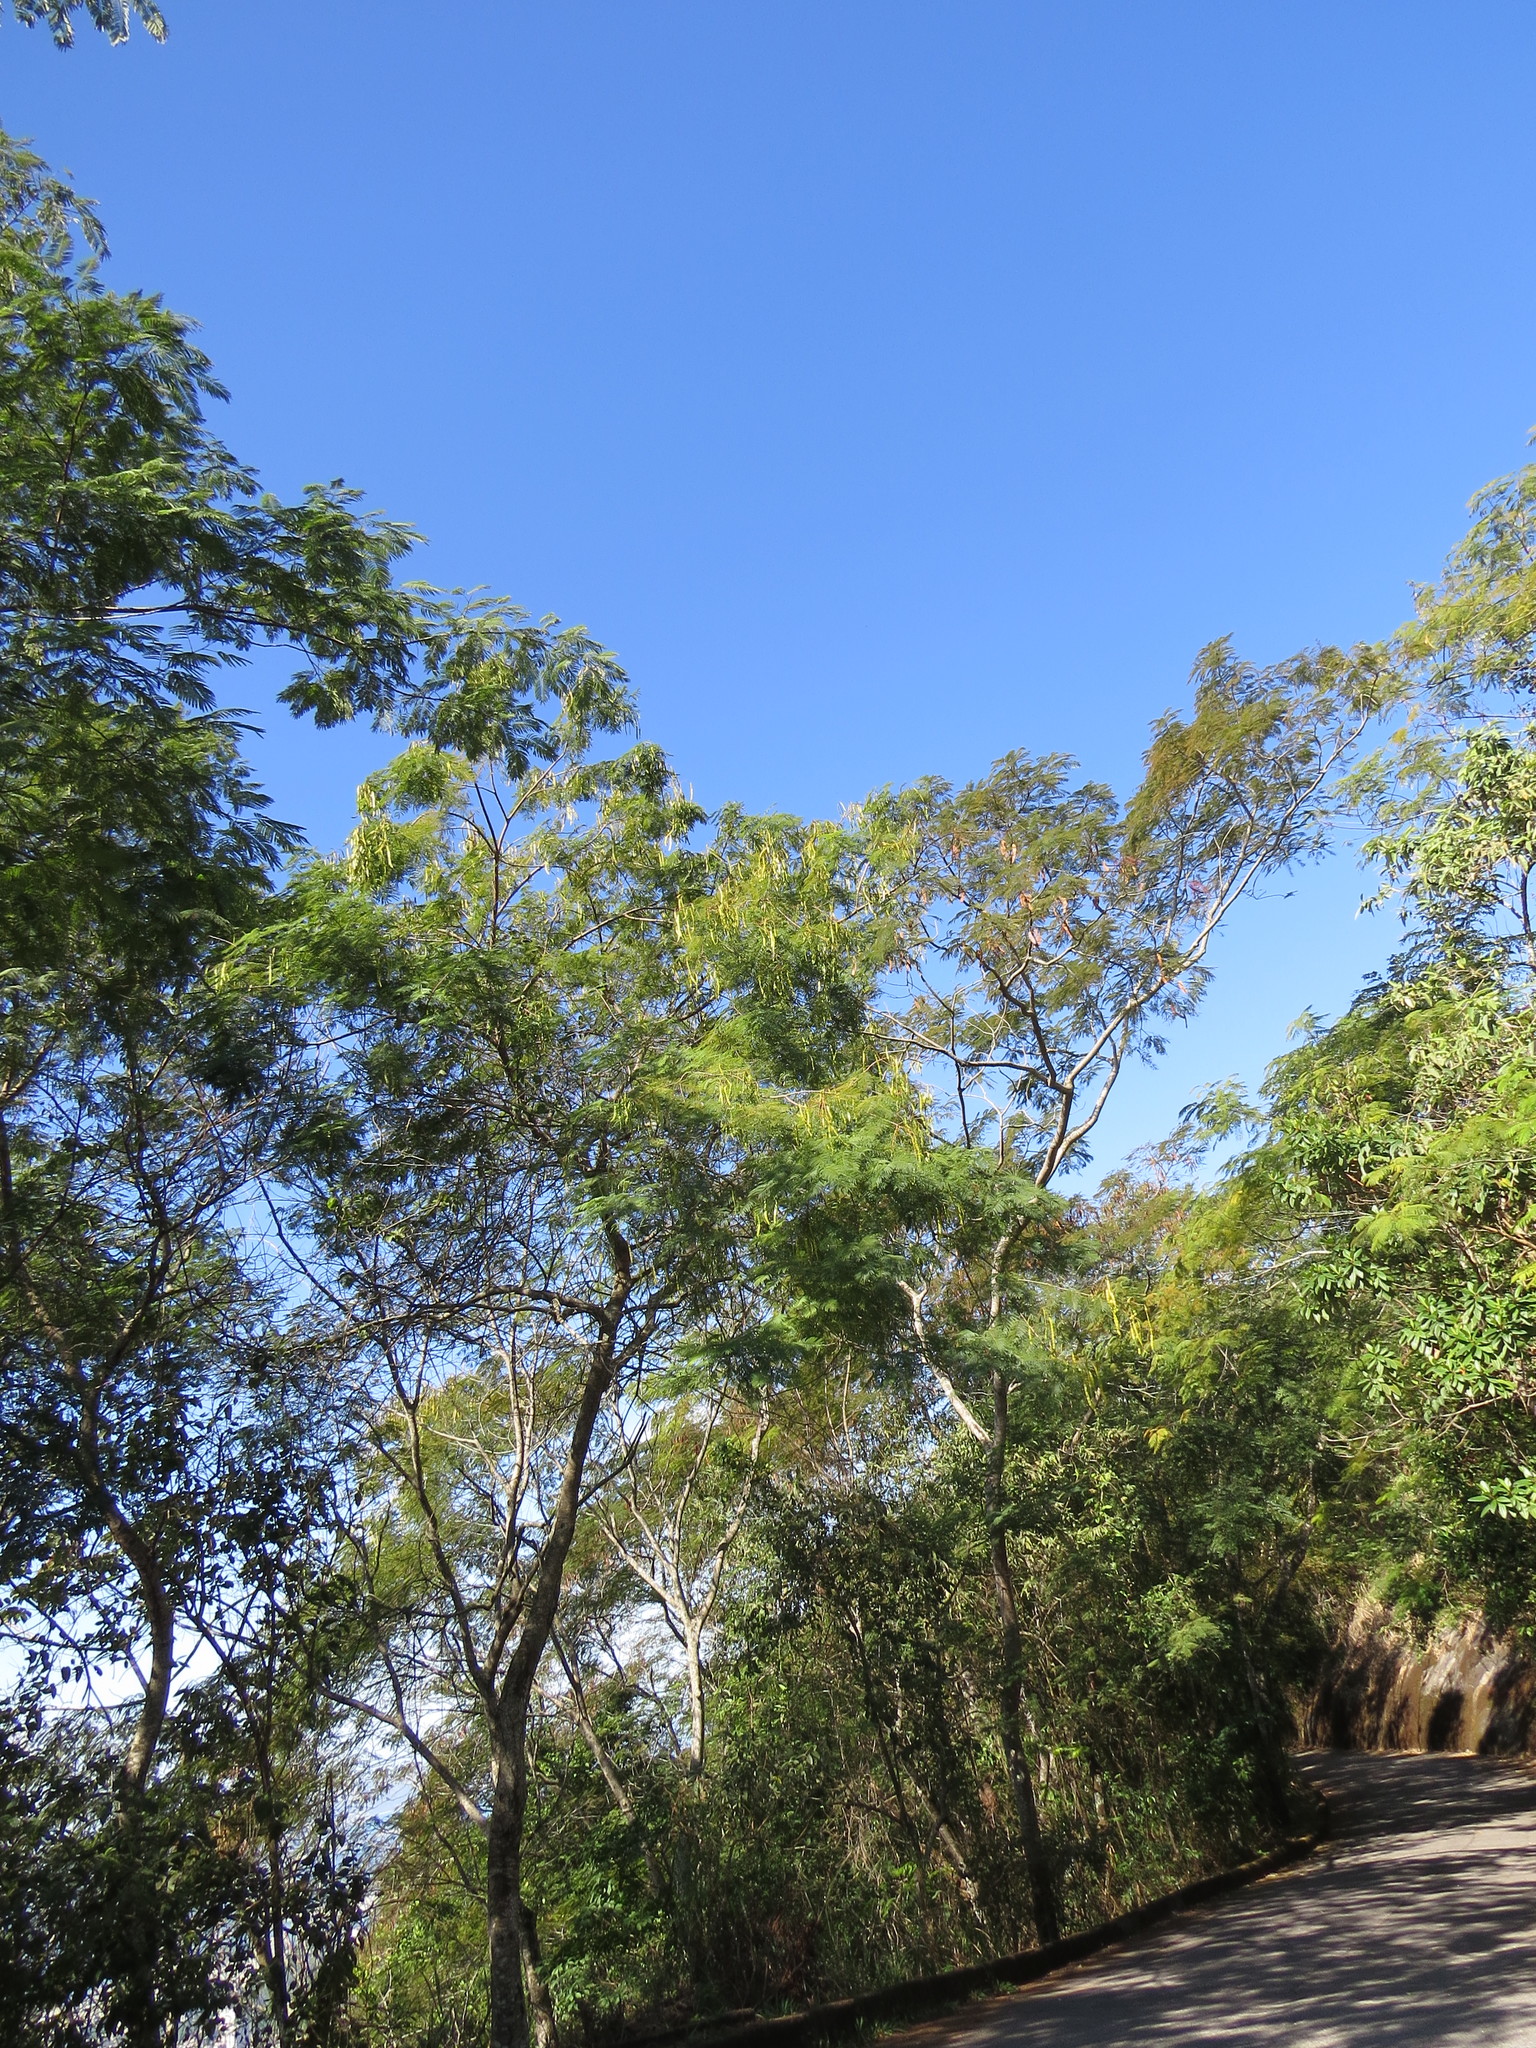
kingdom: Plantae
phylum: Tracheophyta
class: Magnoliopsida
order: Fabales
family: Fabaceae
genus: Anadenanthera
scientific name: Anadenanthera colubrina
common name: Curupay
